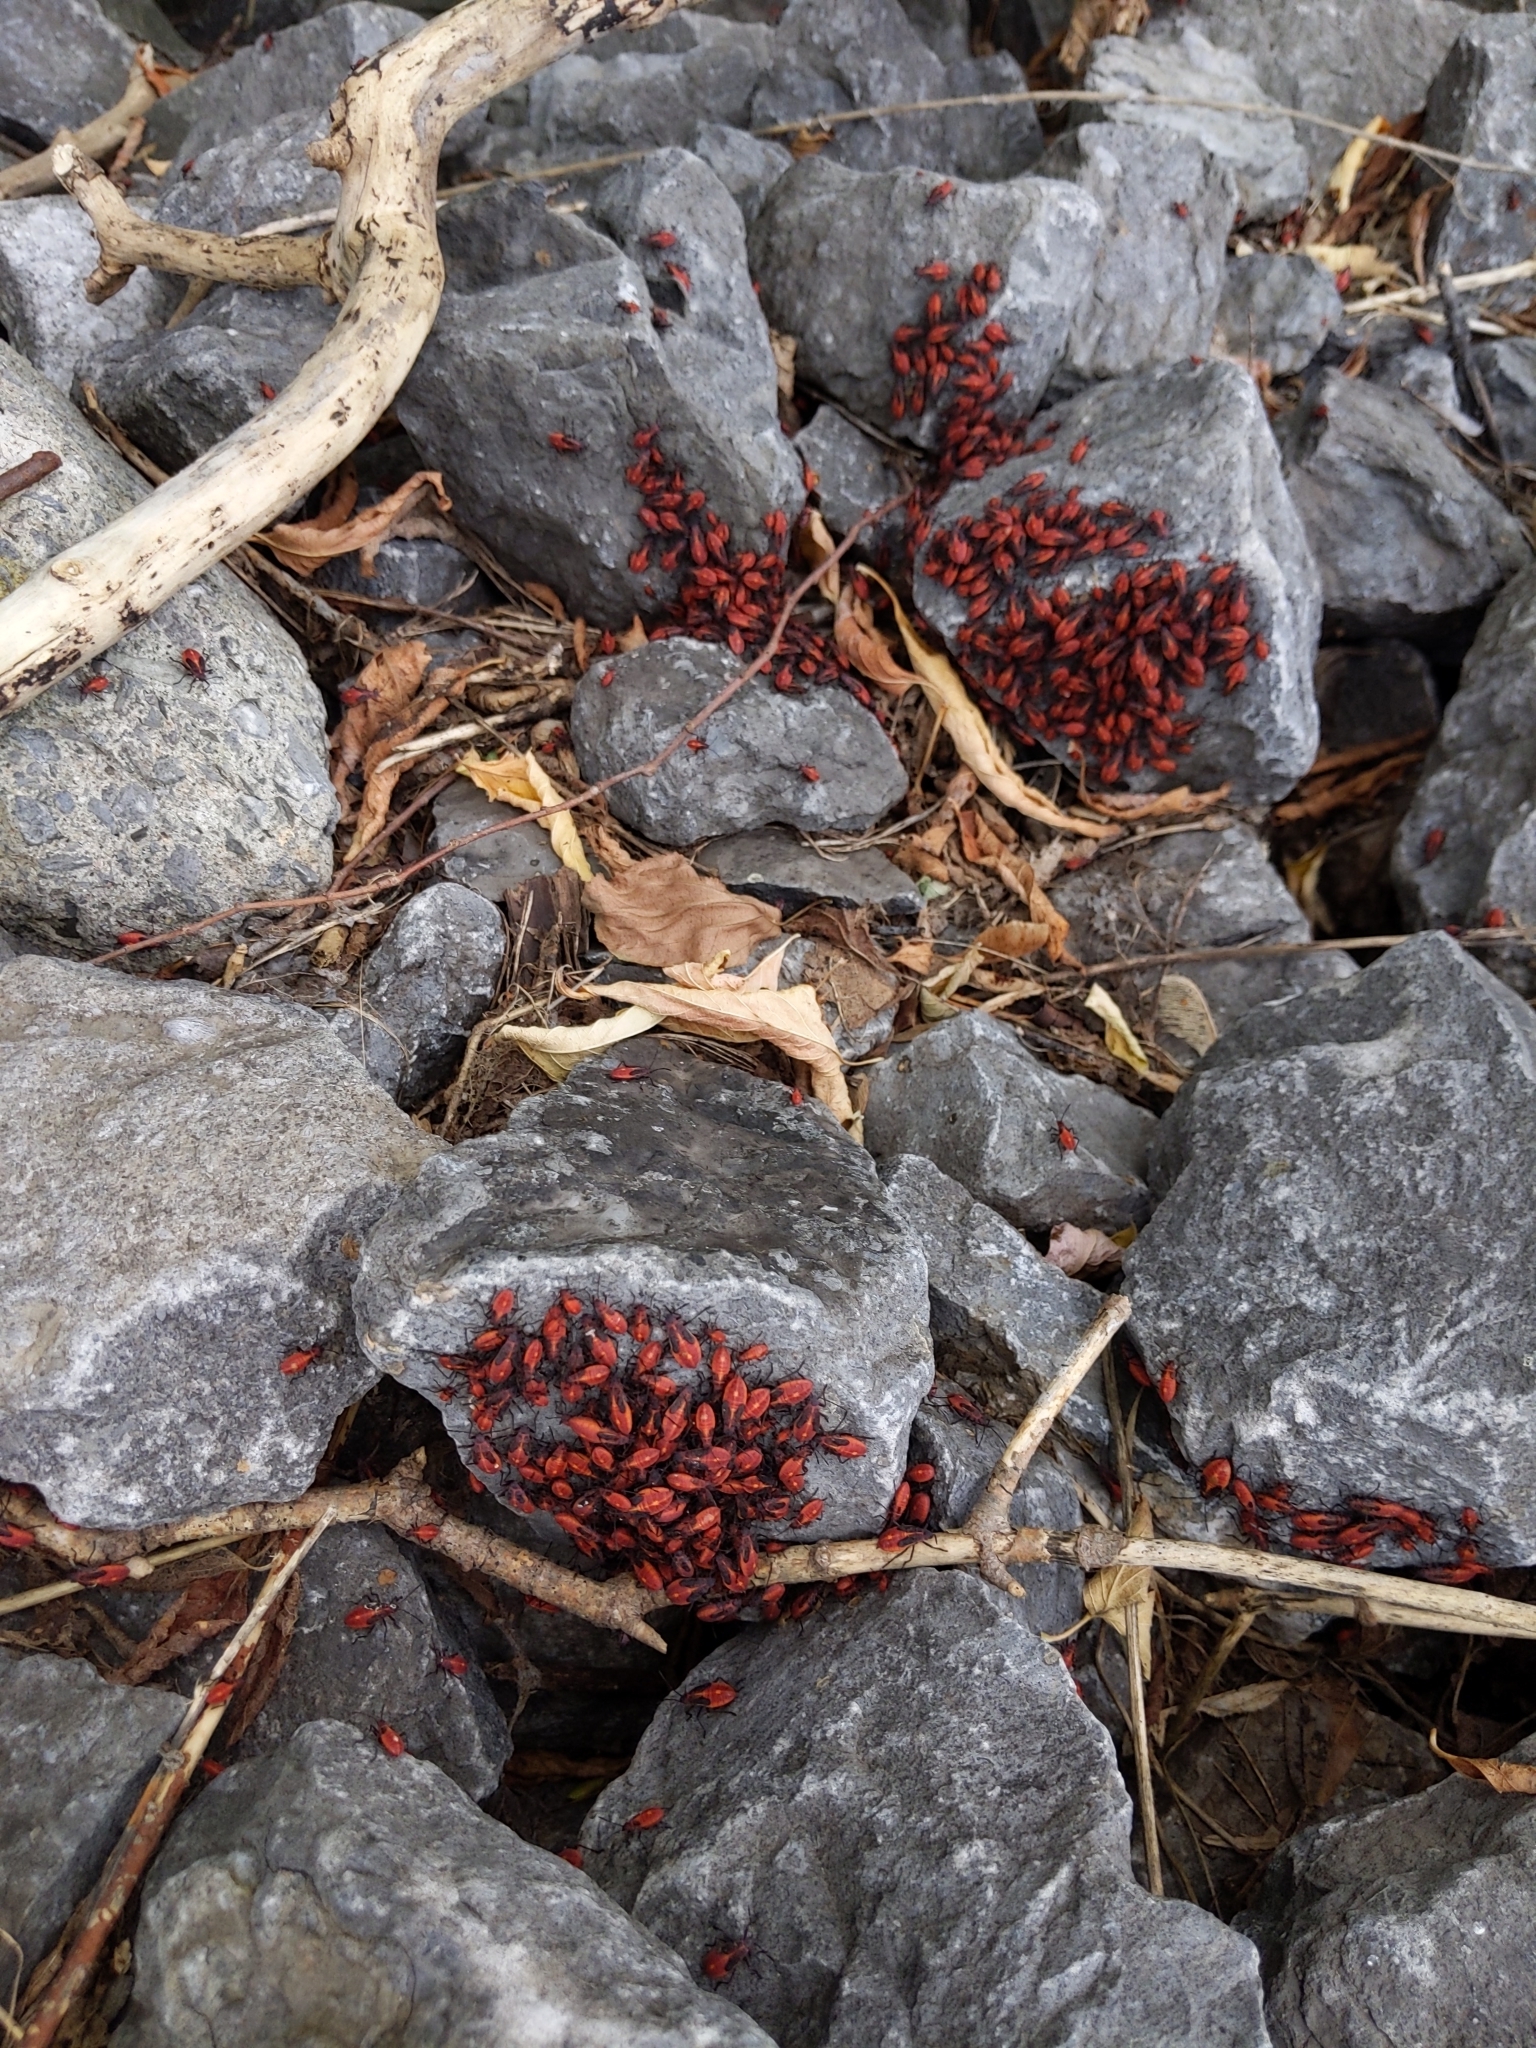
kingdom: Animalia
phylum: Arthropoda
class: Insecta
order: Hemiptera
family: Rhopalidae
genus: Boisea
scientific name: Boisea trivittata
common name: Boxelder bug
